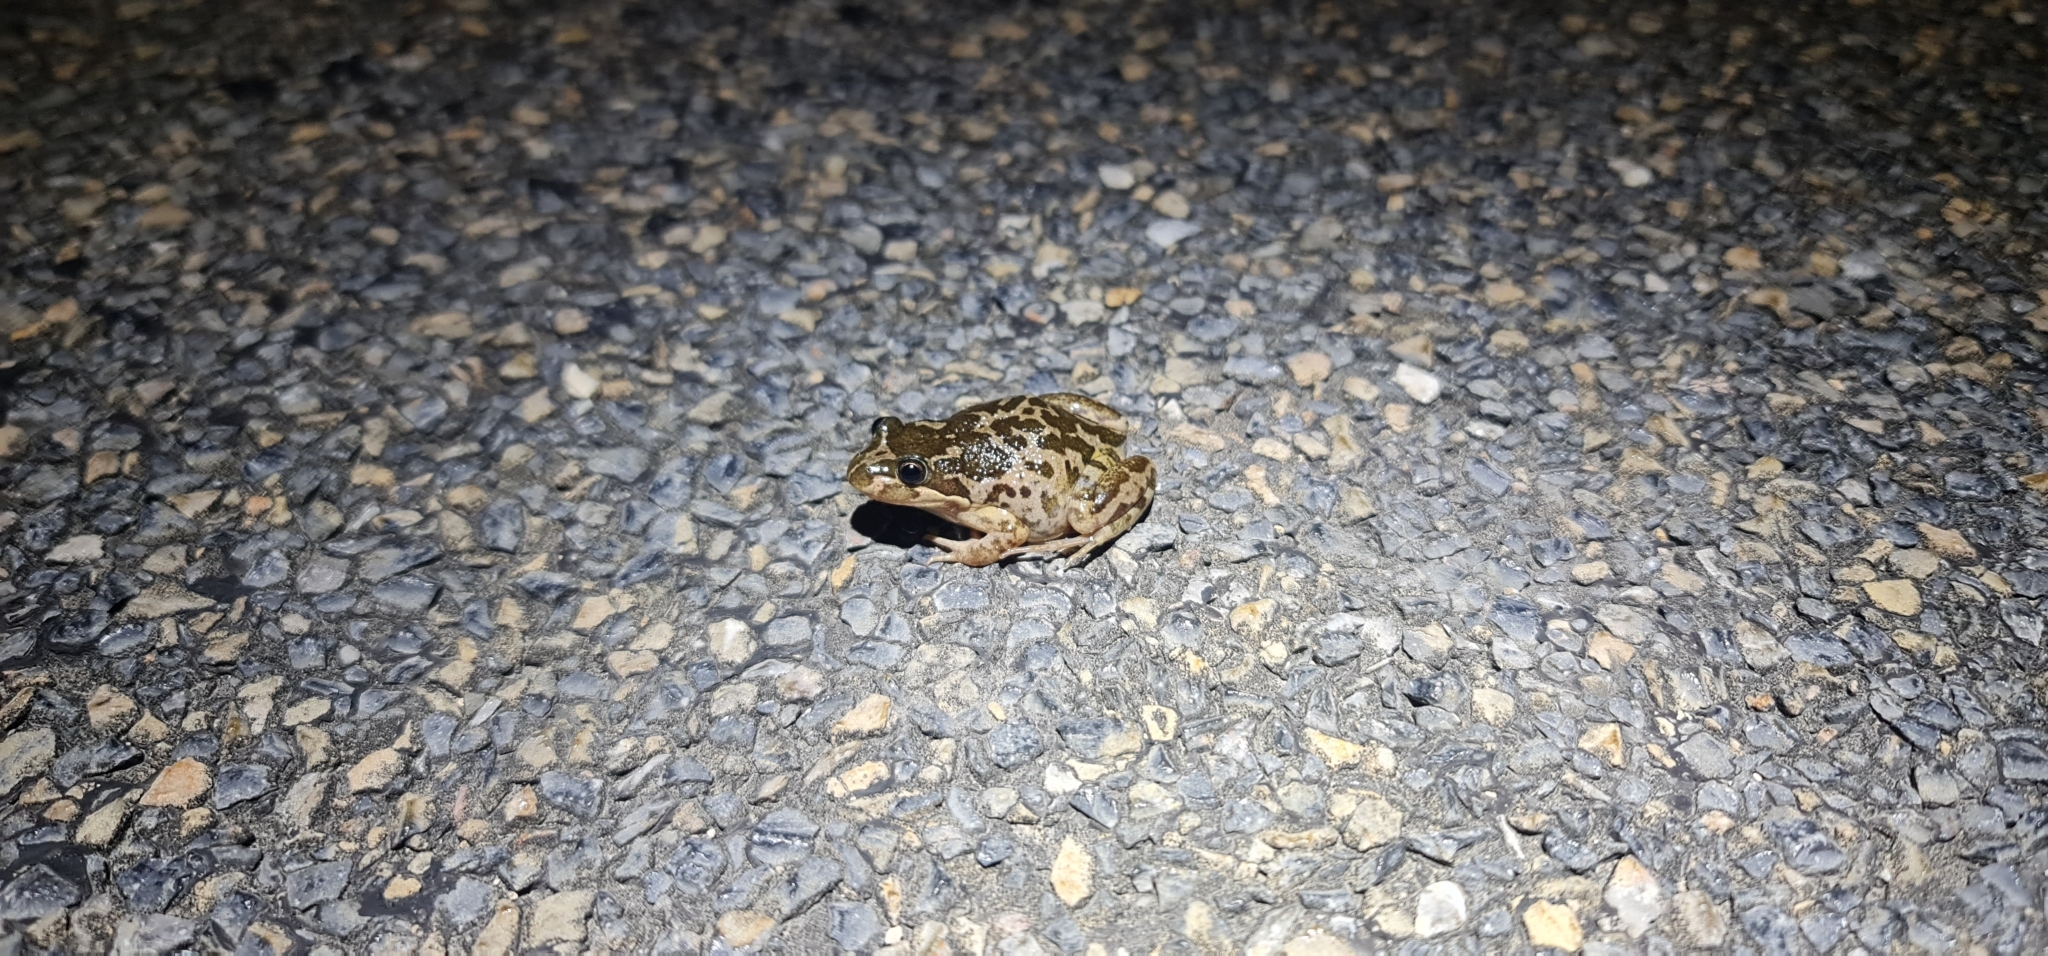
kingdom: Animalia
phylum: Chordata
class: Amphibia
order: Anura
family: Limnodynastidae
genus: Limnodynastes
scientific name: Limnodynastes tasmaniensis
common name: Spotted marsh frog
